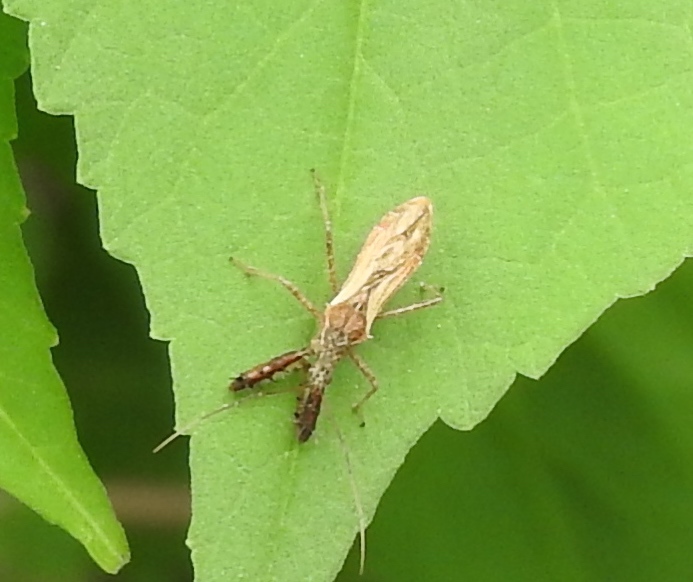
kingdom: Animalia
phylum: Arthropoda
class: Insecta
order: Hemiptera
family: Reduviidae
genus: Sinea
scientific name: Sinea
